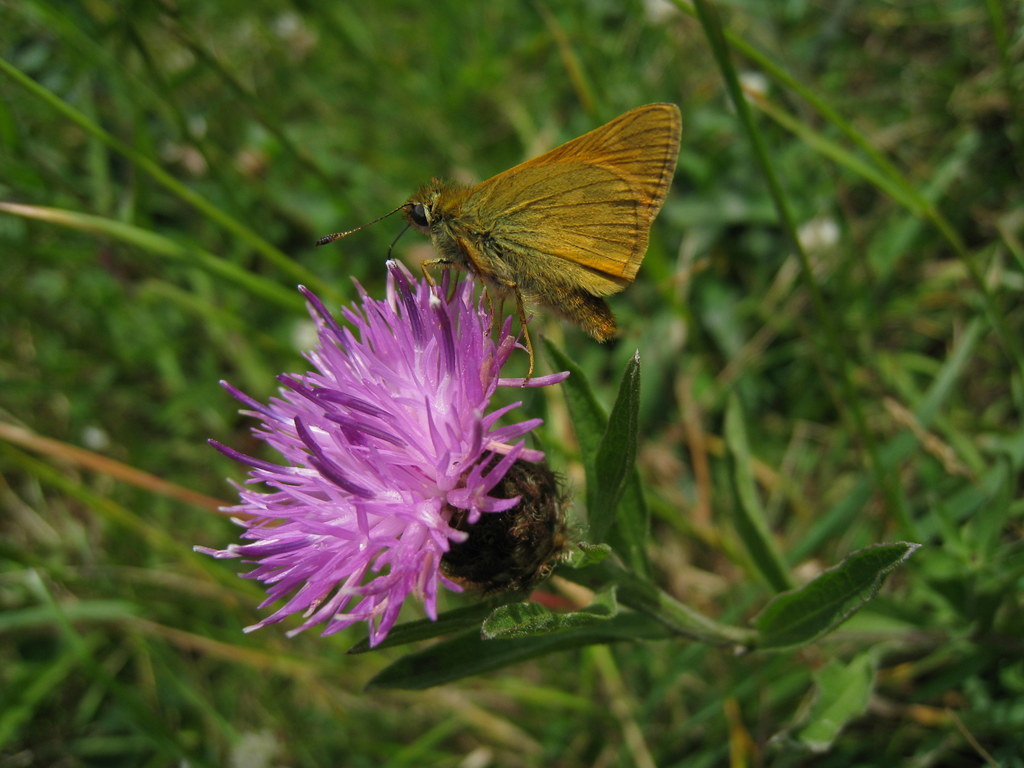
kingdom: Animalia
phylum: Arthropoda
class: Insecta
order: Lepidoptera
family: Hesperiidae
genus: Ochlodes
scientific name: Ochlodes venata
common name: Large skipper
